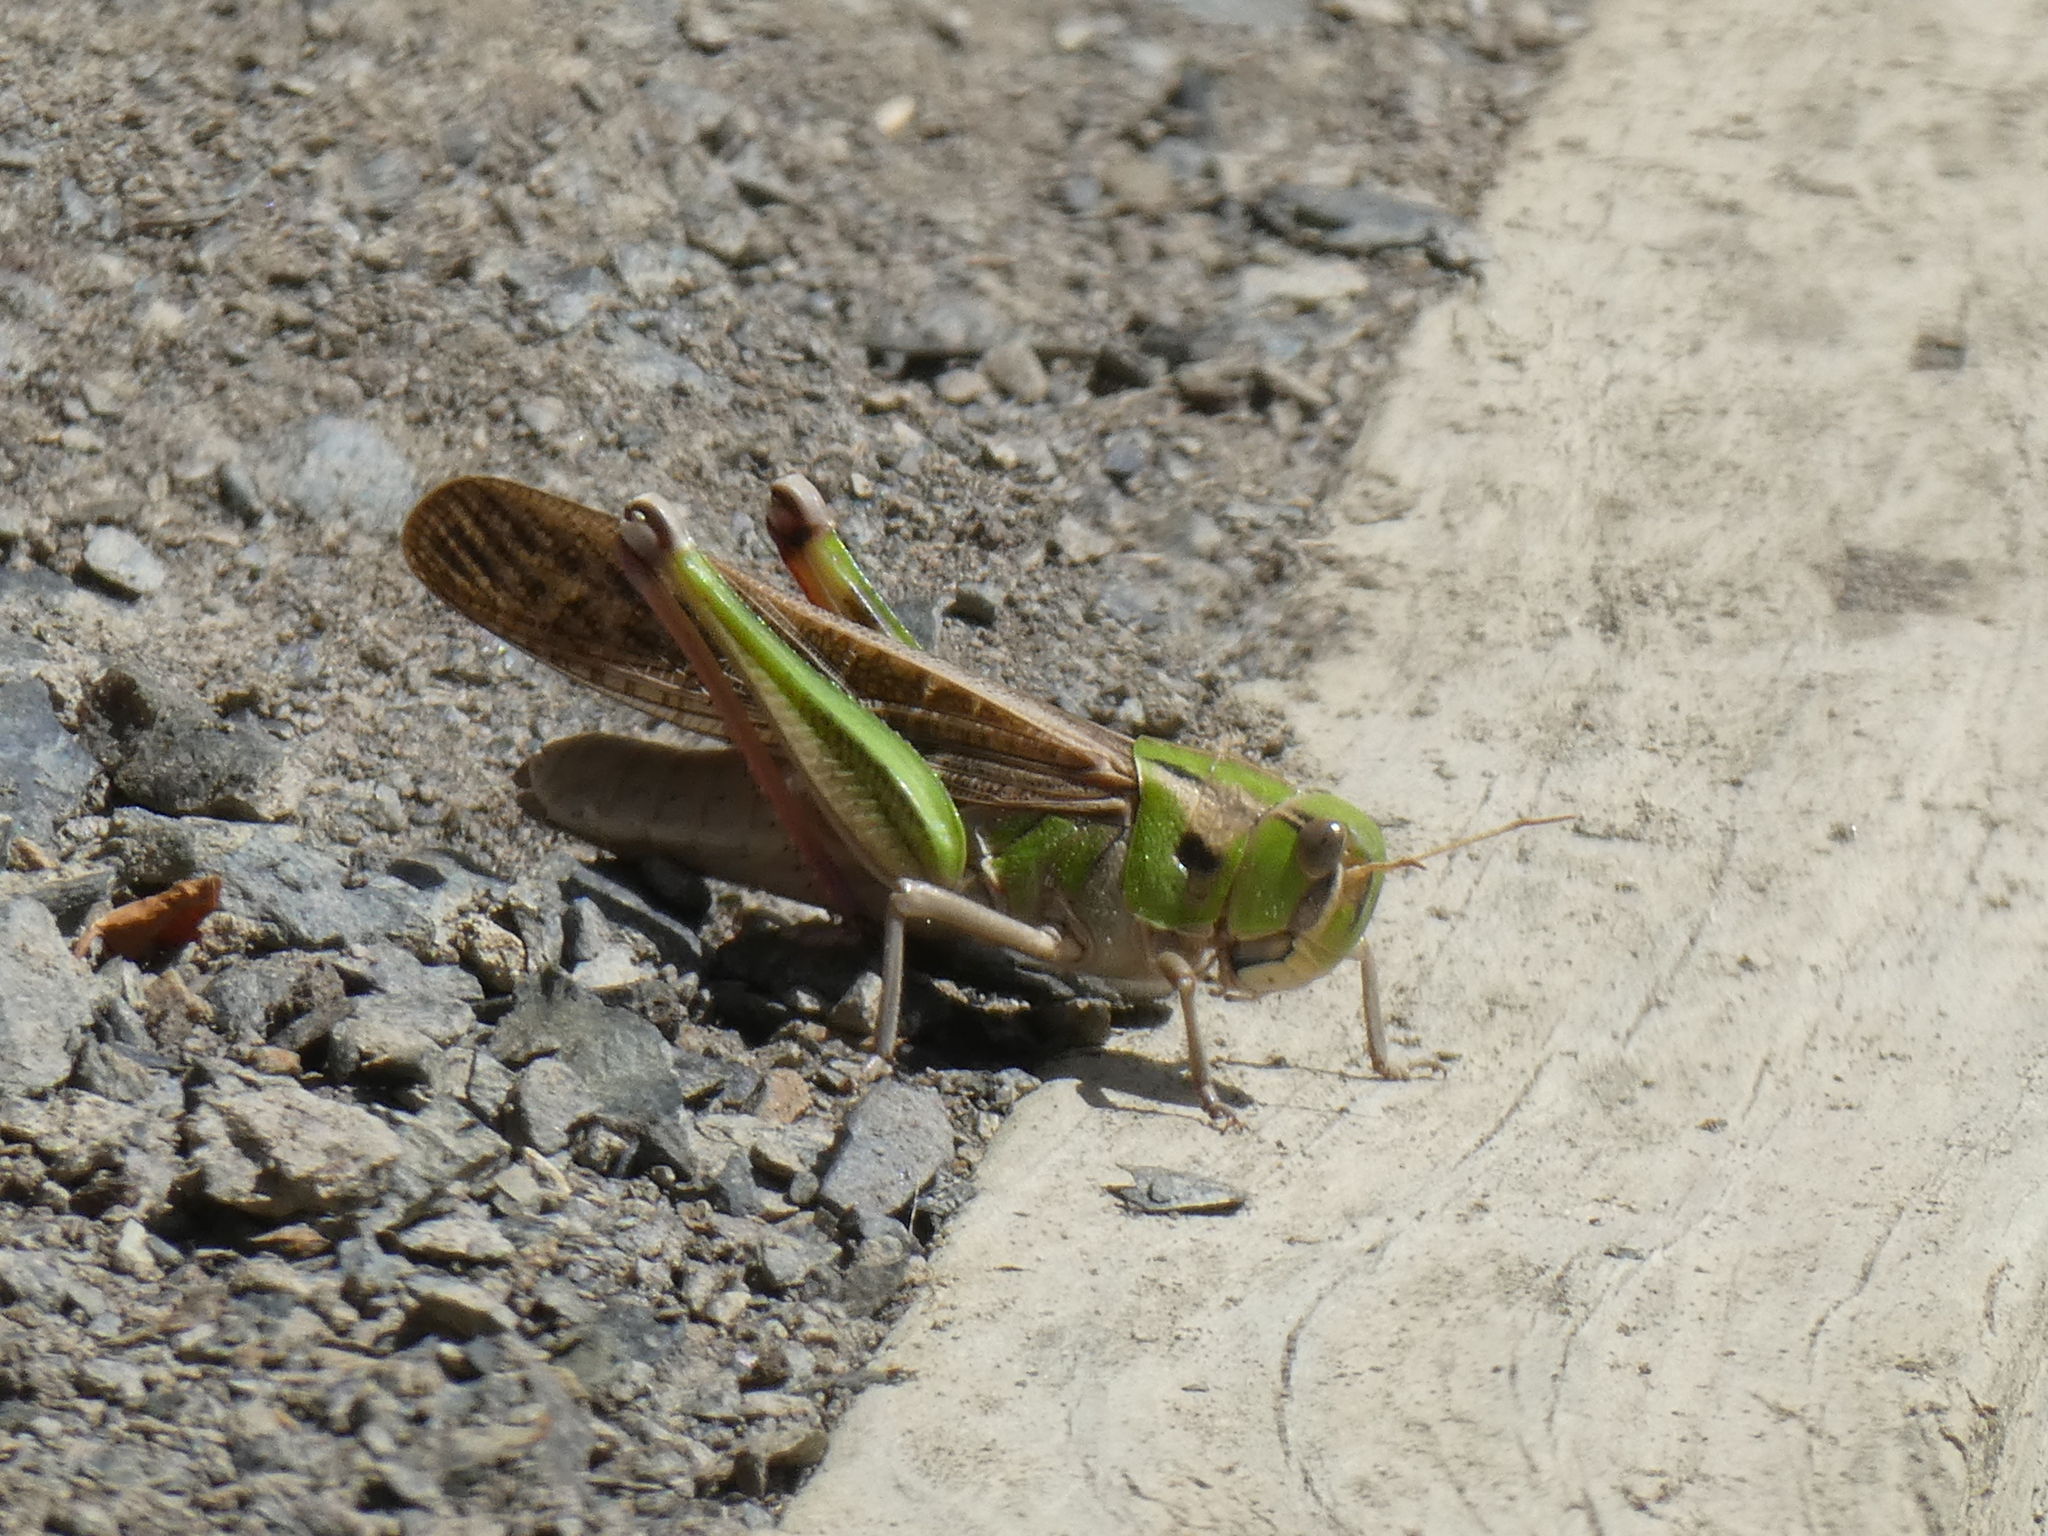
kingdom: Animalia
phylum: Arthropoda
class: Insecta
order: Orthoptera
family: Acrididae
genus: Locusta
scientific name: Locusta migratoria
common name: Migratory locust
